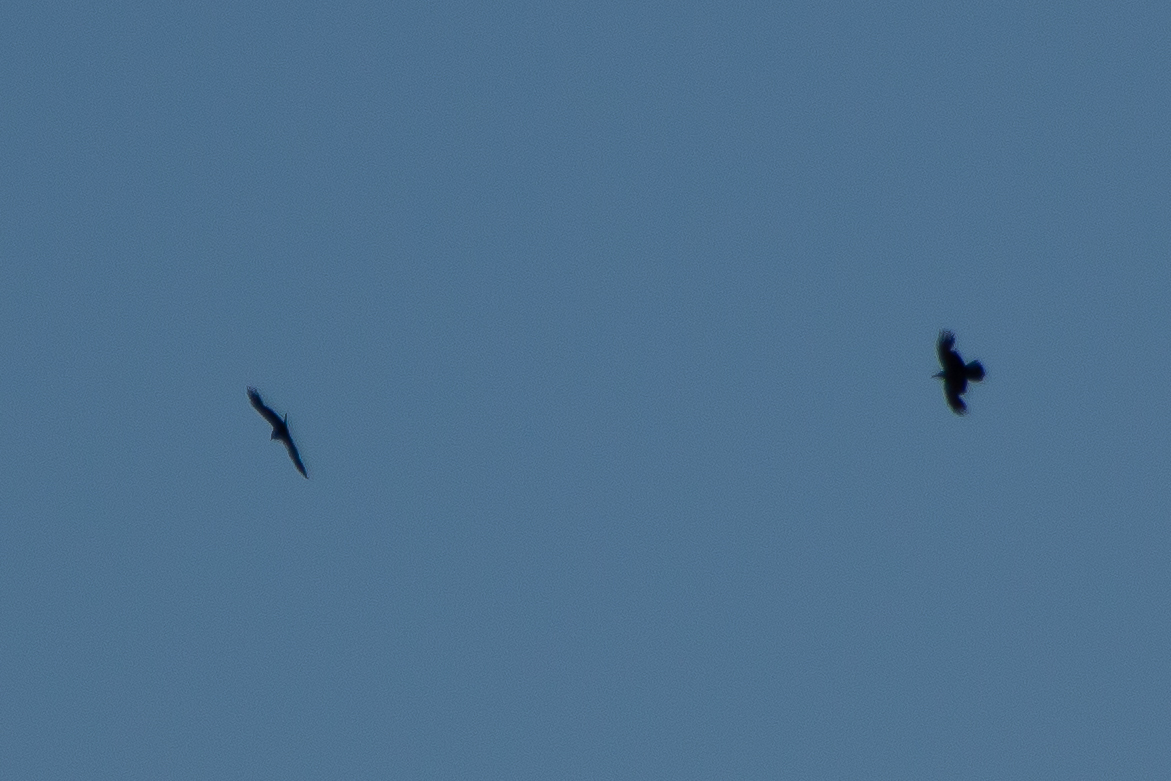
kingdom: Animalia
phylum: Chordata
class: Aves
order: Passeriformes
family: Corvidae
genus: Corvus
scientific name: Corvus corax
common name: Common raven
